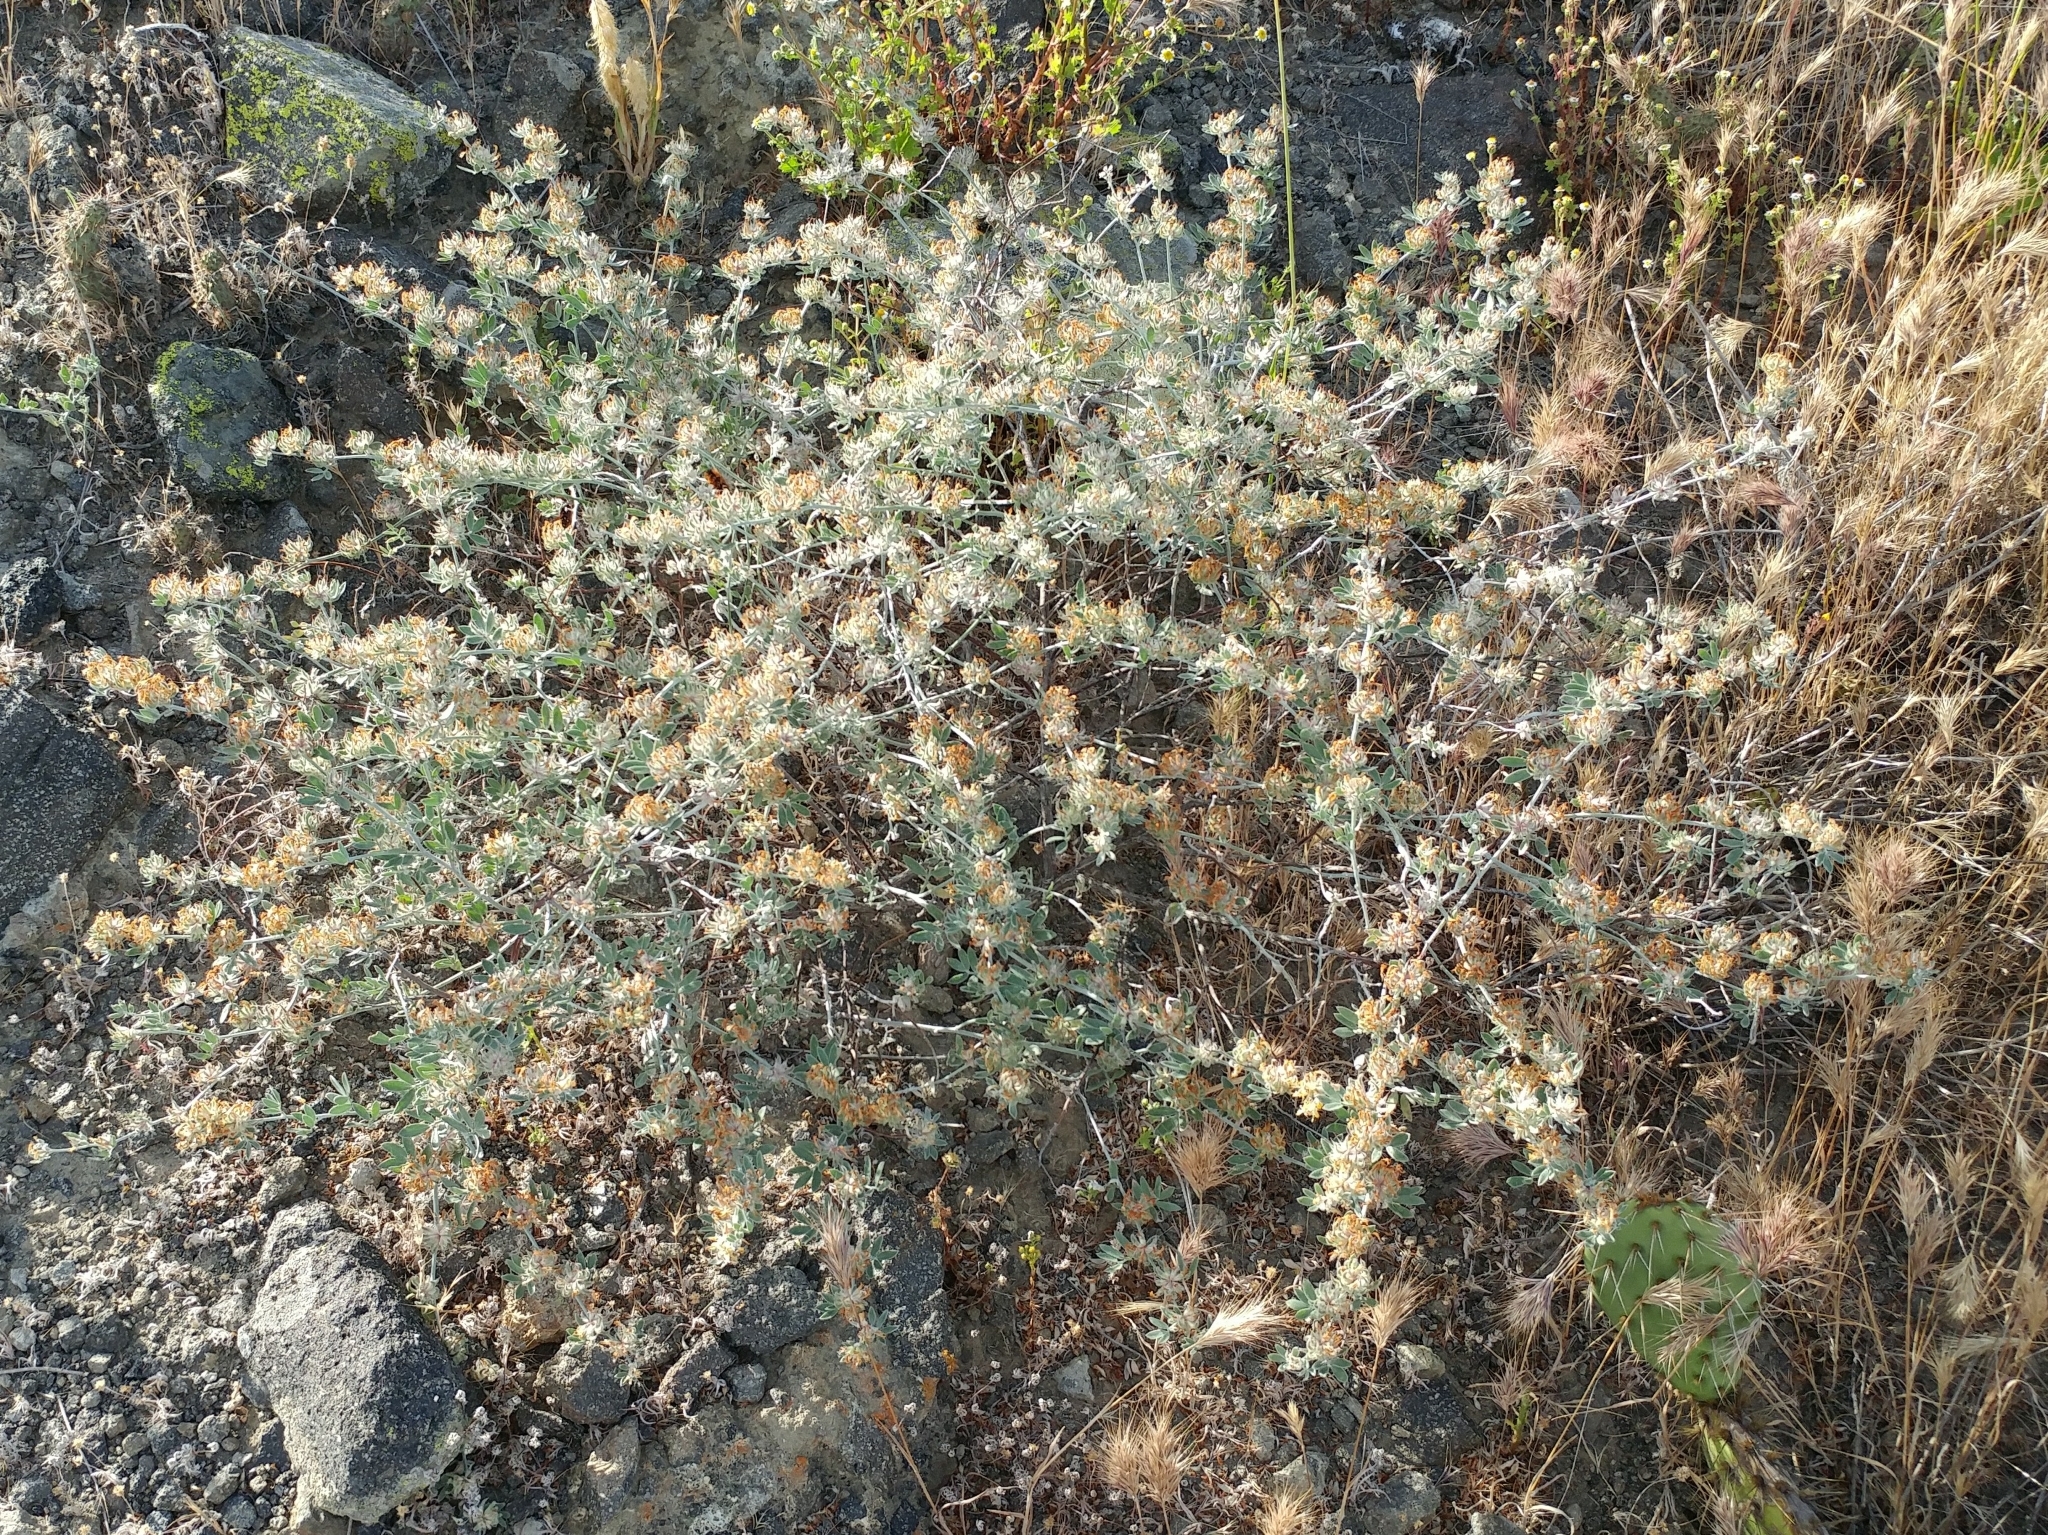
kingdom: Plantae
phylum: Tracheophyta
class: Magnoliopsida
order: Fabales
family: Fabaceae
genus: Acmispon
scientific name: Acmispon argophyllus
